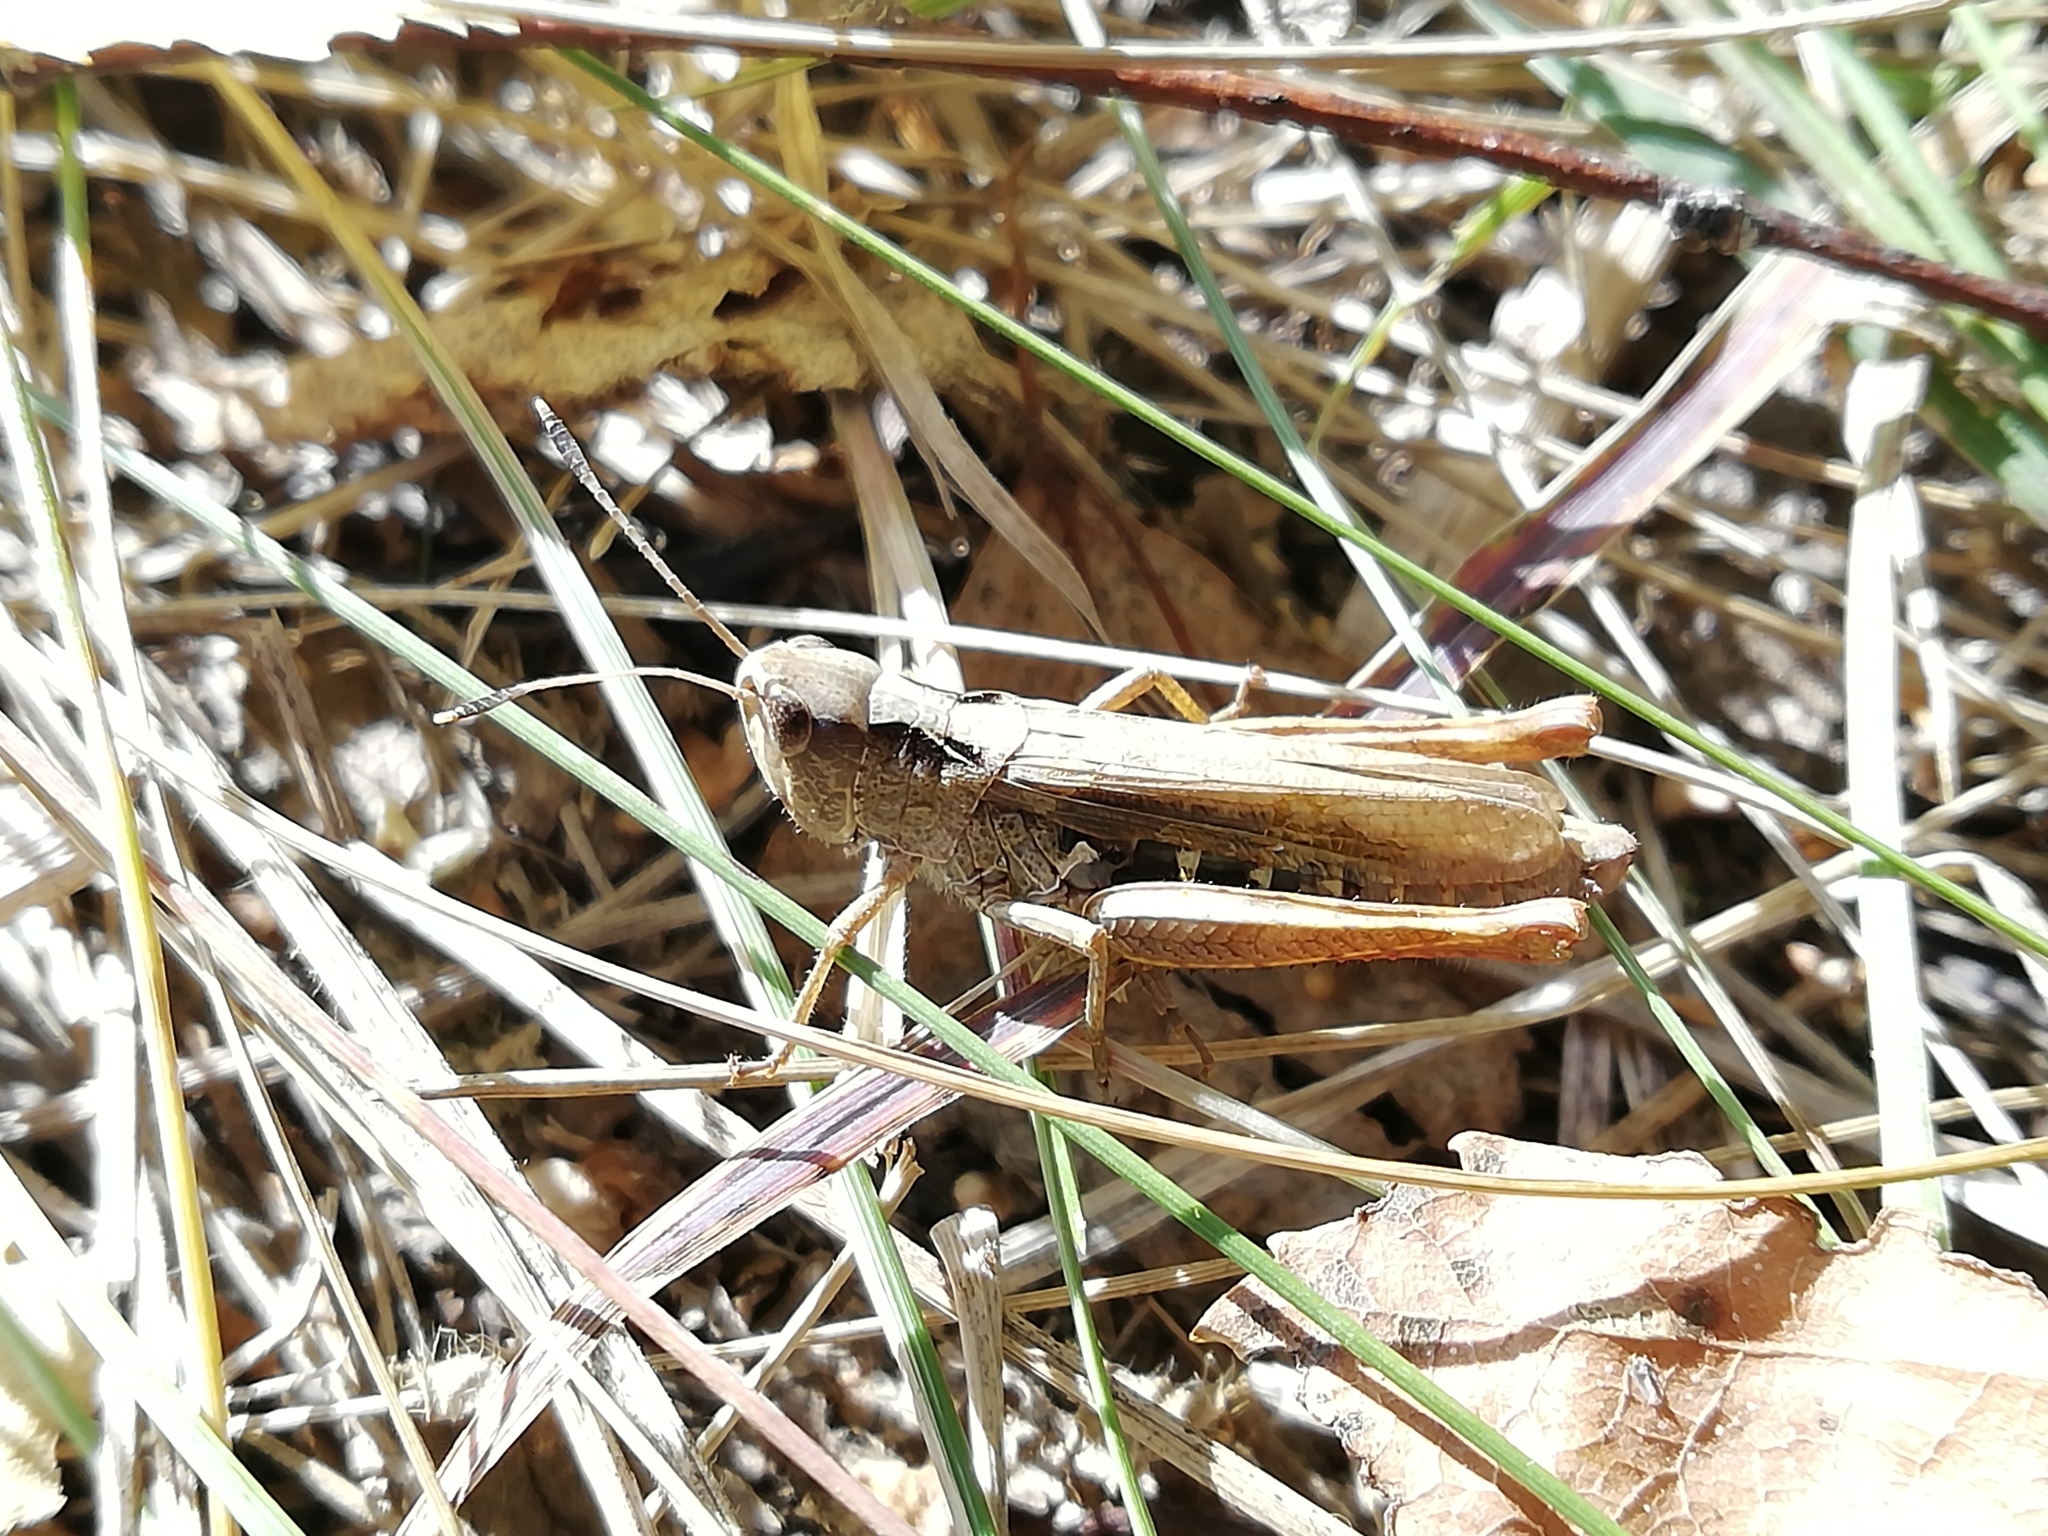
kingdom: Animalia
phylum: Arthropoda
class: Insecta
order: Orthoptera
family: Acrididae
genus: Gomphocerippus
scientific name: Gomphocerippus rufus
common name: Rufous grasshopper
